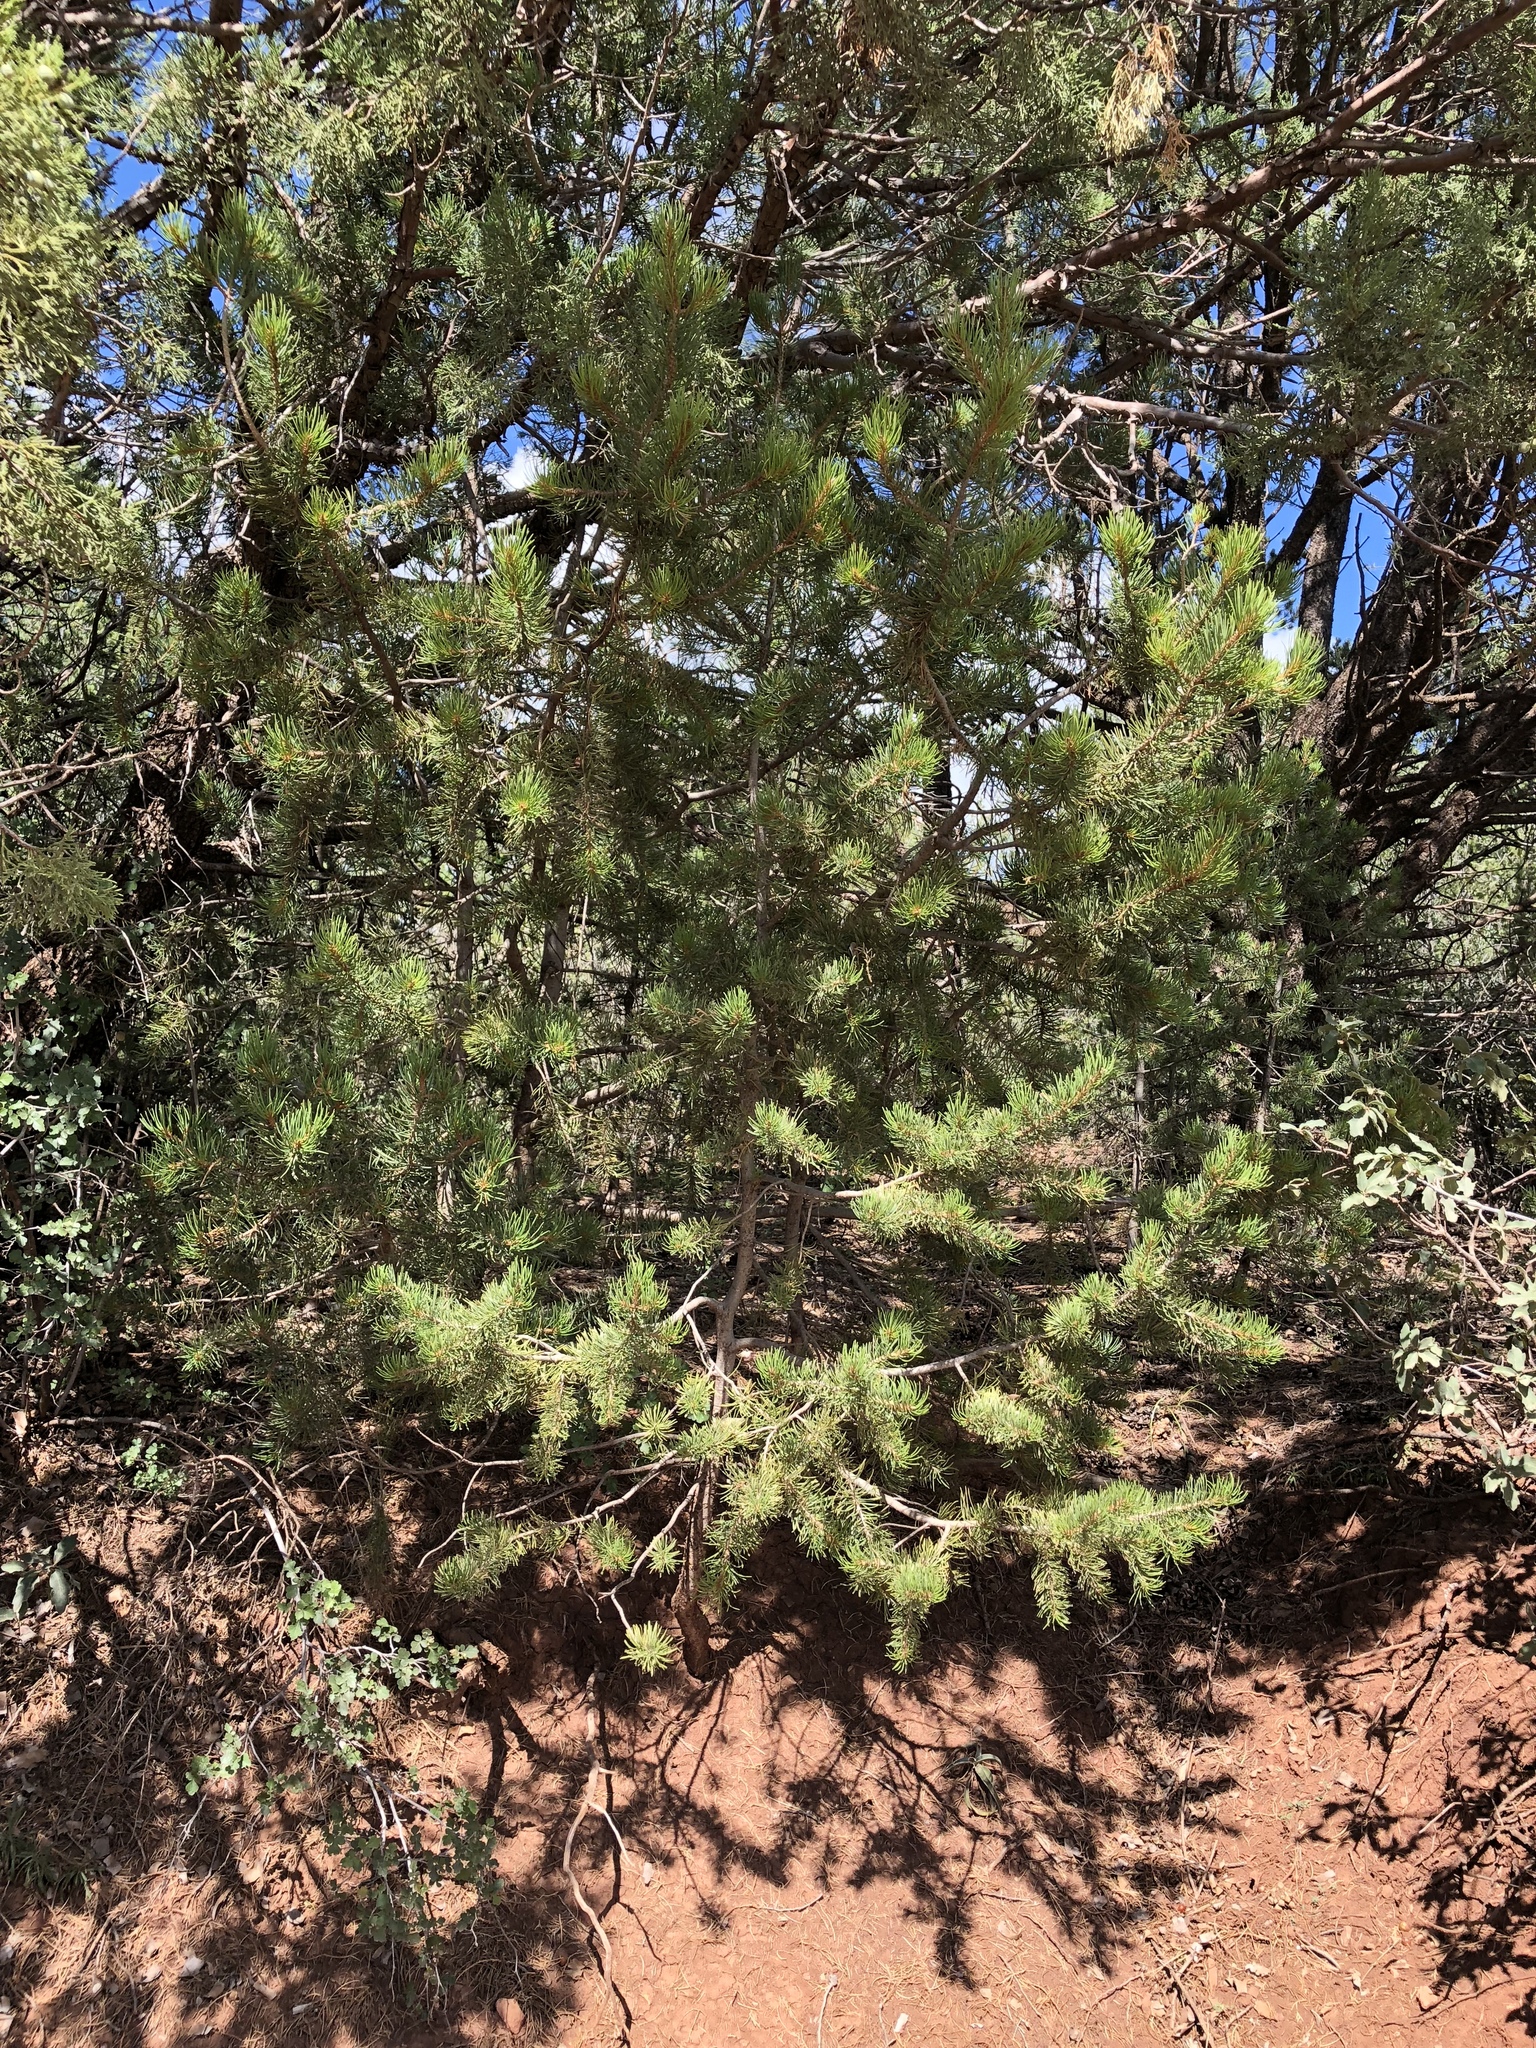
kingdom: Plantae
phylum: Tracheophyta
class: Pinopsida
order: Pinales
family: Pinaceae
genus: Pinus
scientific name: Pinus edulis
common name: Colorado pinyon
